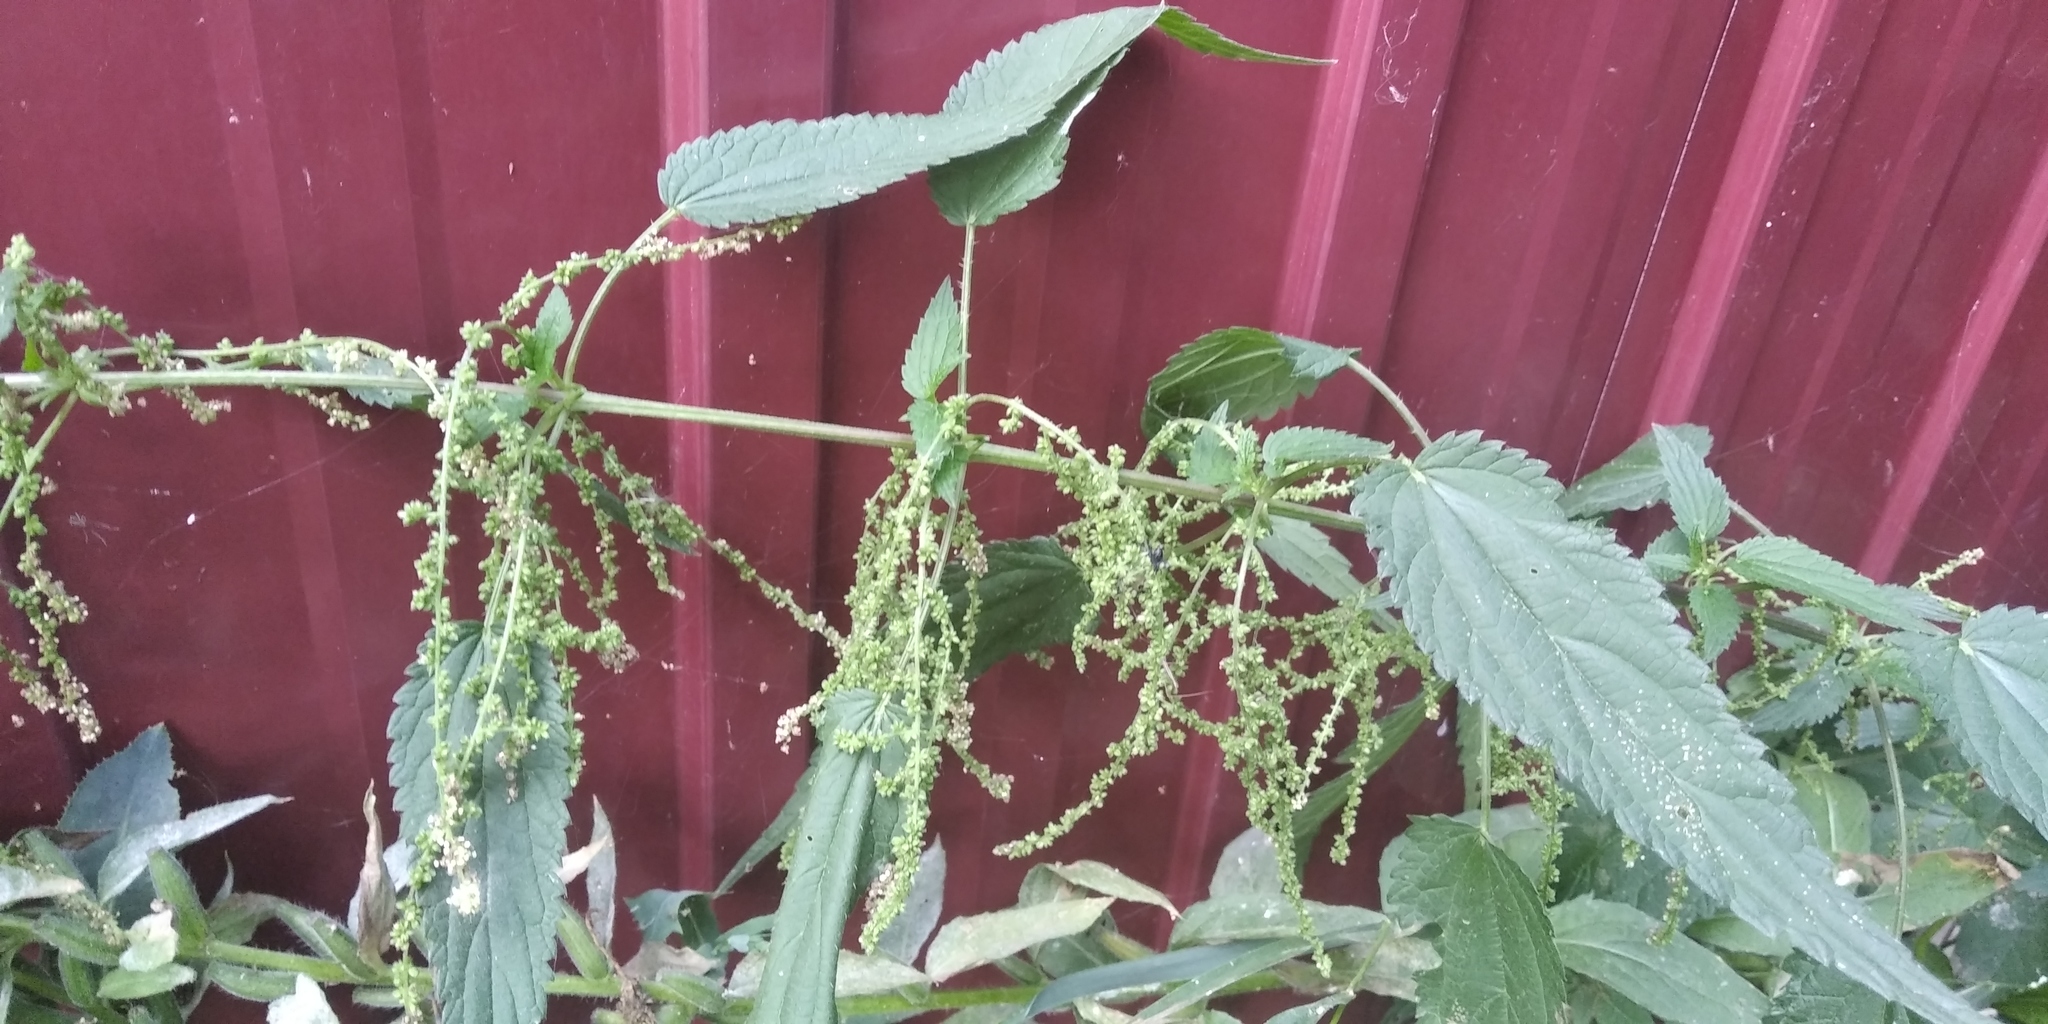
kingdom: Plantae
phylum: Tracheophyta
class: Magnoliopsida
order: Rosales
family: Urticaceae
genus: Urtica
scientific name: Urtica dioica
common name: Common nettle
